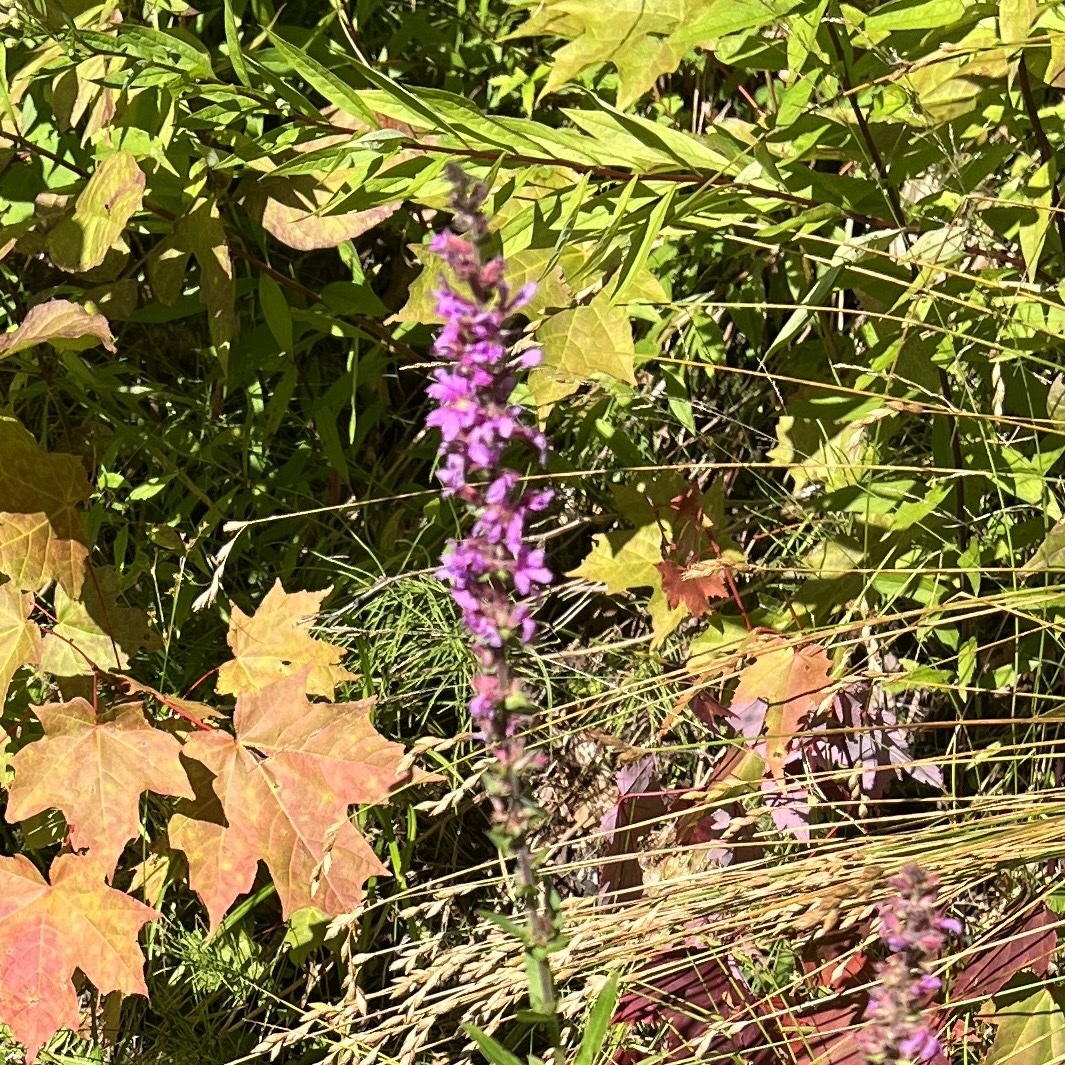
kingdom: Plantae
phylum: Tracheophyta
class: Magnoliopsida
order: Myrtales
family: Lythraceae
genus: Lythrum
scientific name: Lythrum salicaria
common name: Purple loosestrife
